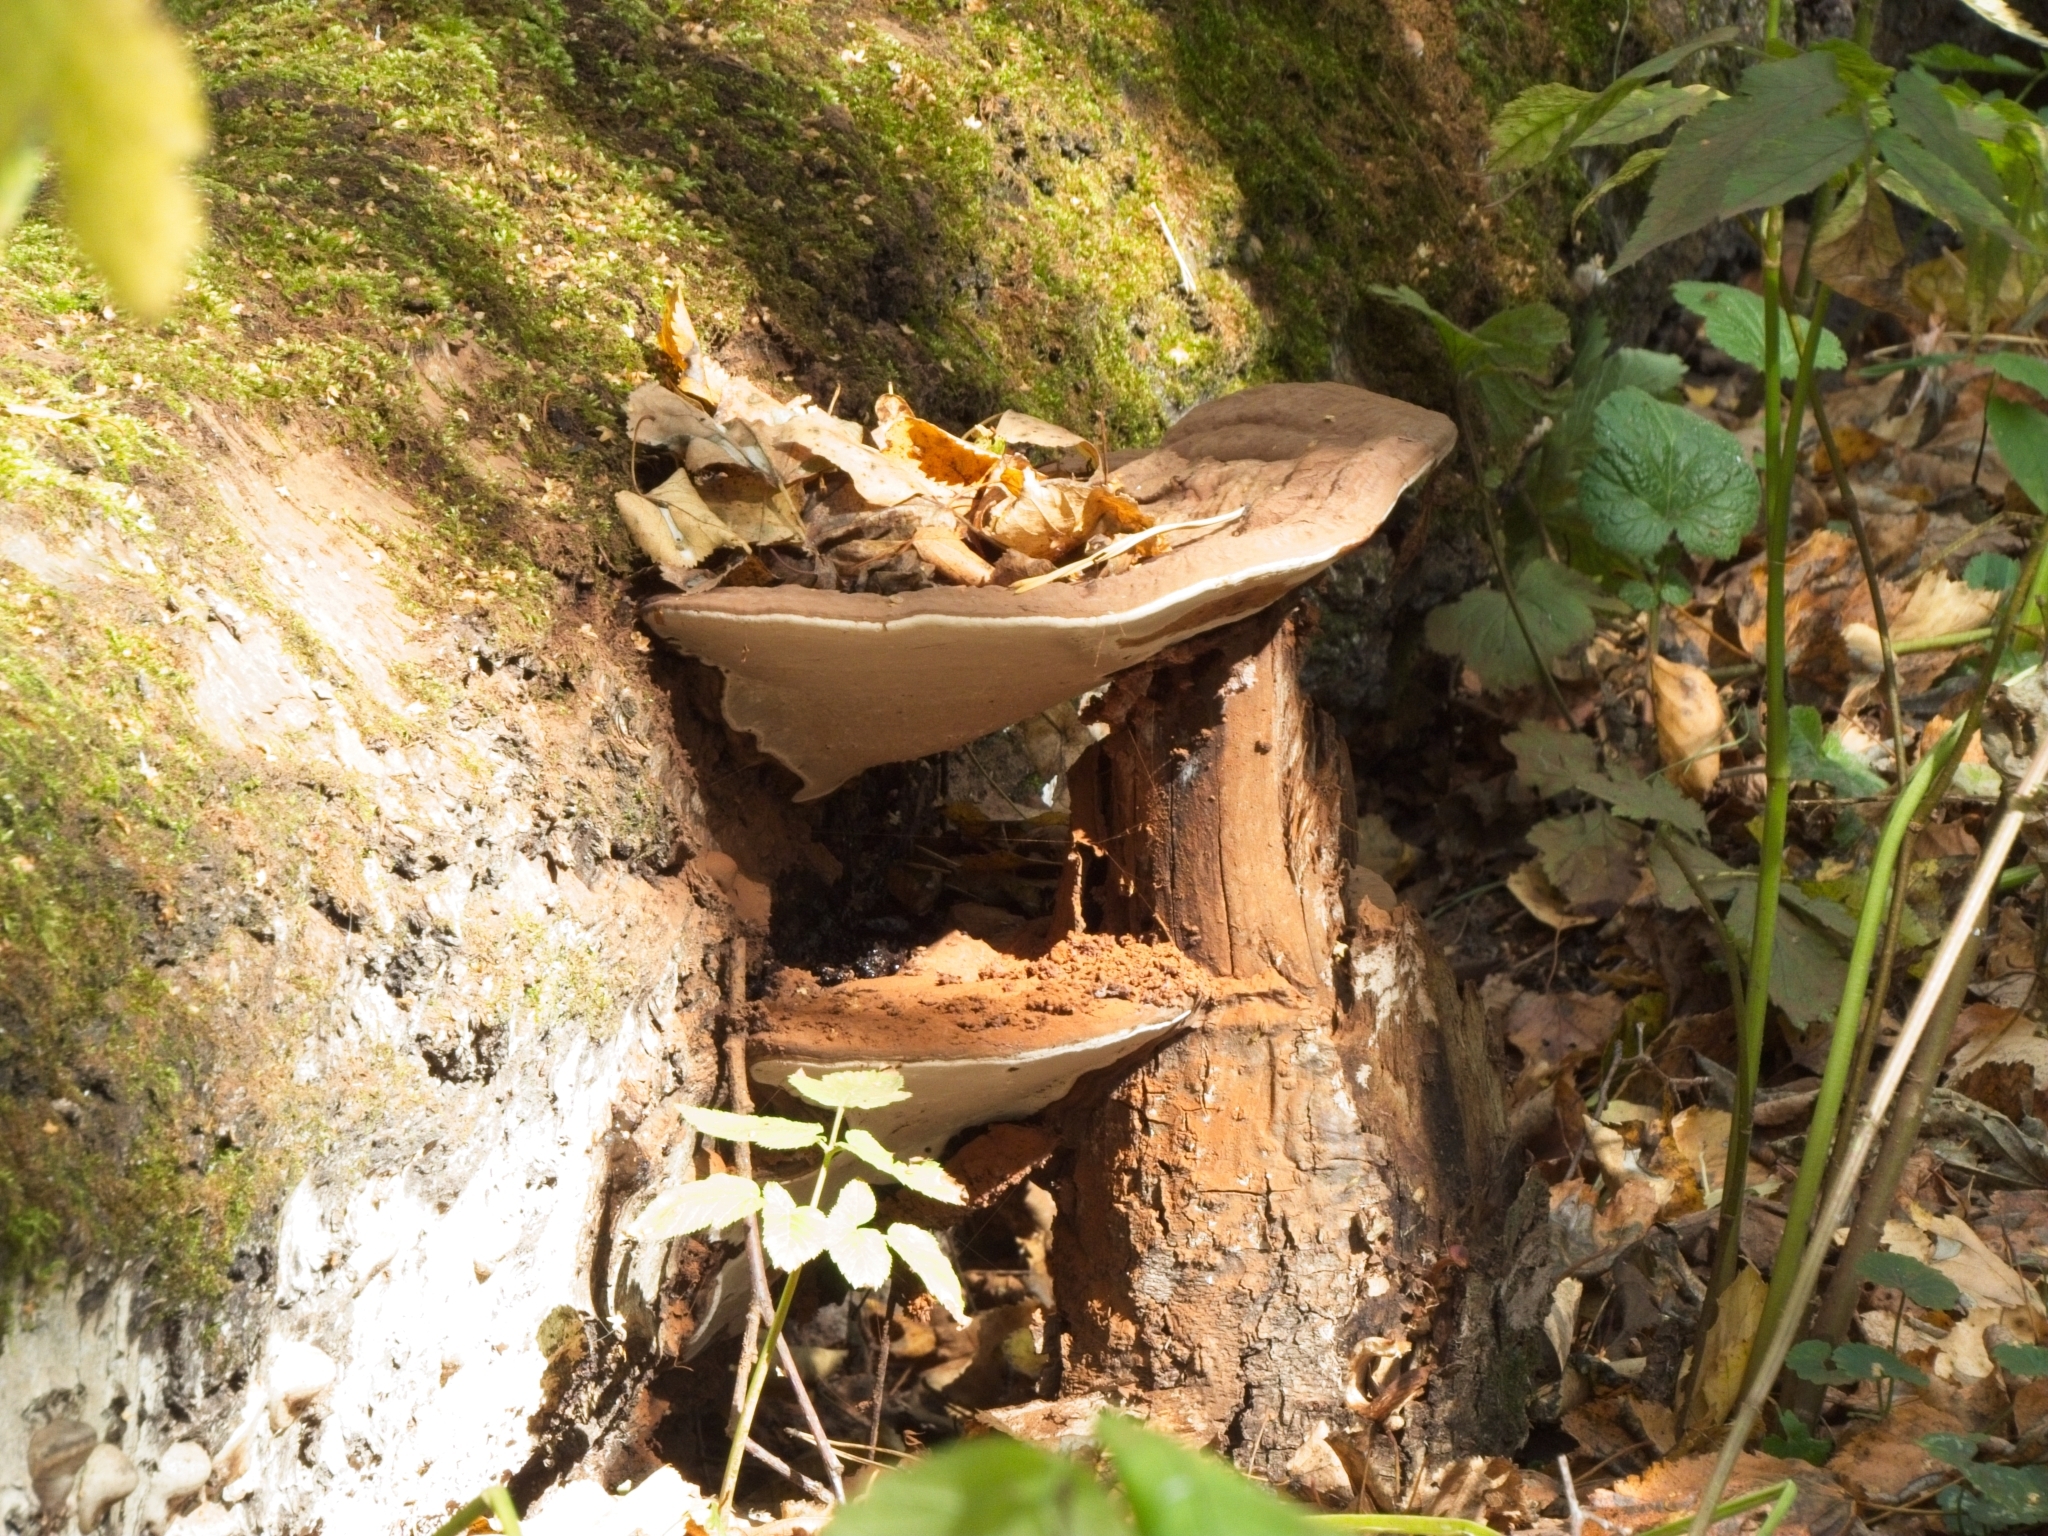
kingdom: Fungi
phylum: Basidiomycota
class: Agaricomycetes
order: Polyporales
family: Polyporaceae
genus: Ganoderma
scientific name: Ganoderma applanatum
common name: Artist's bracket
